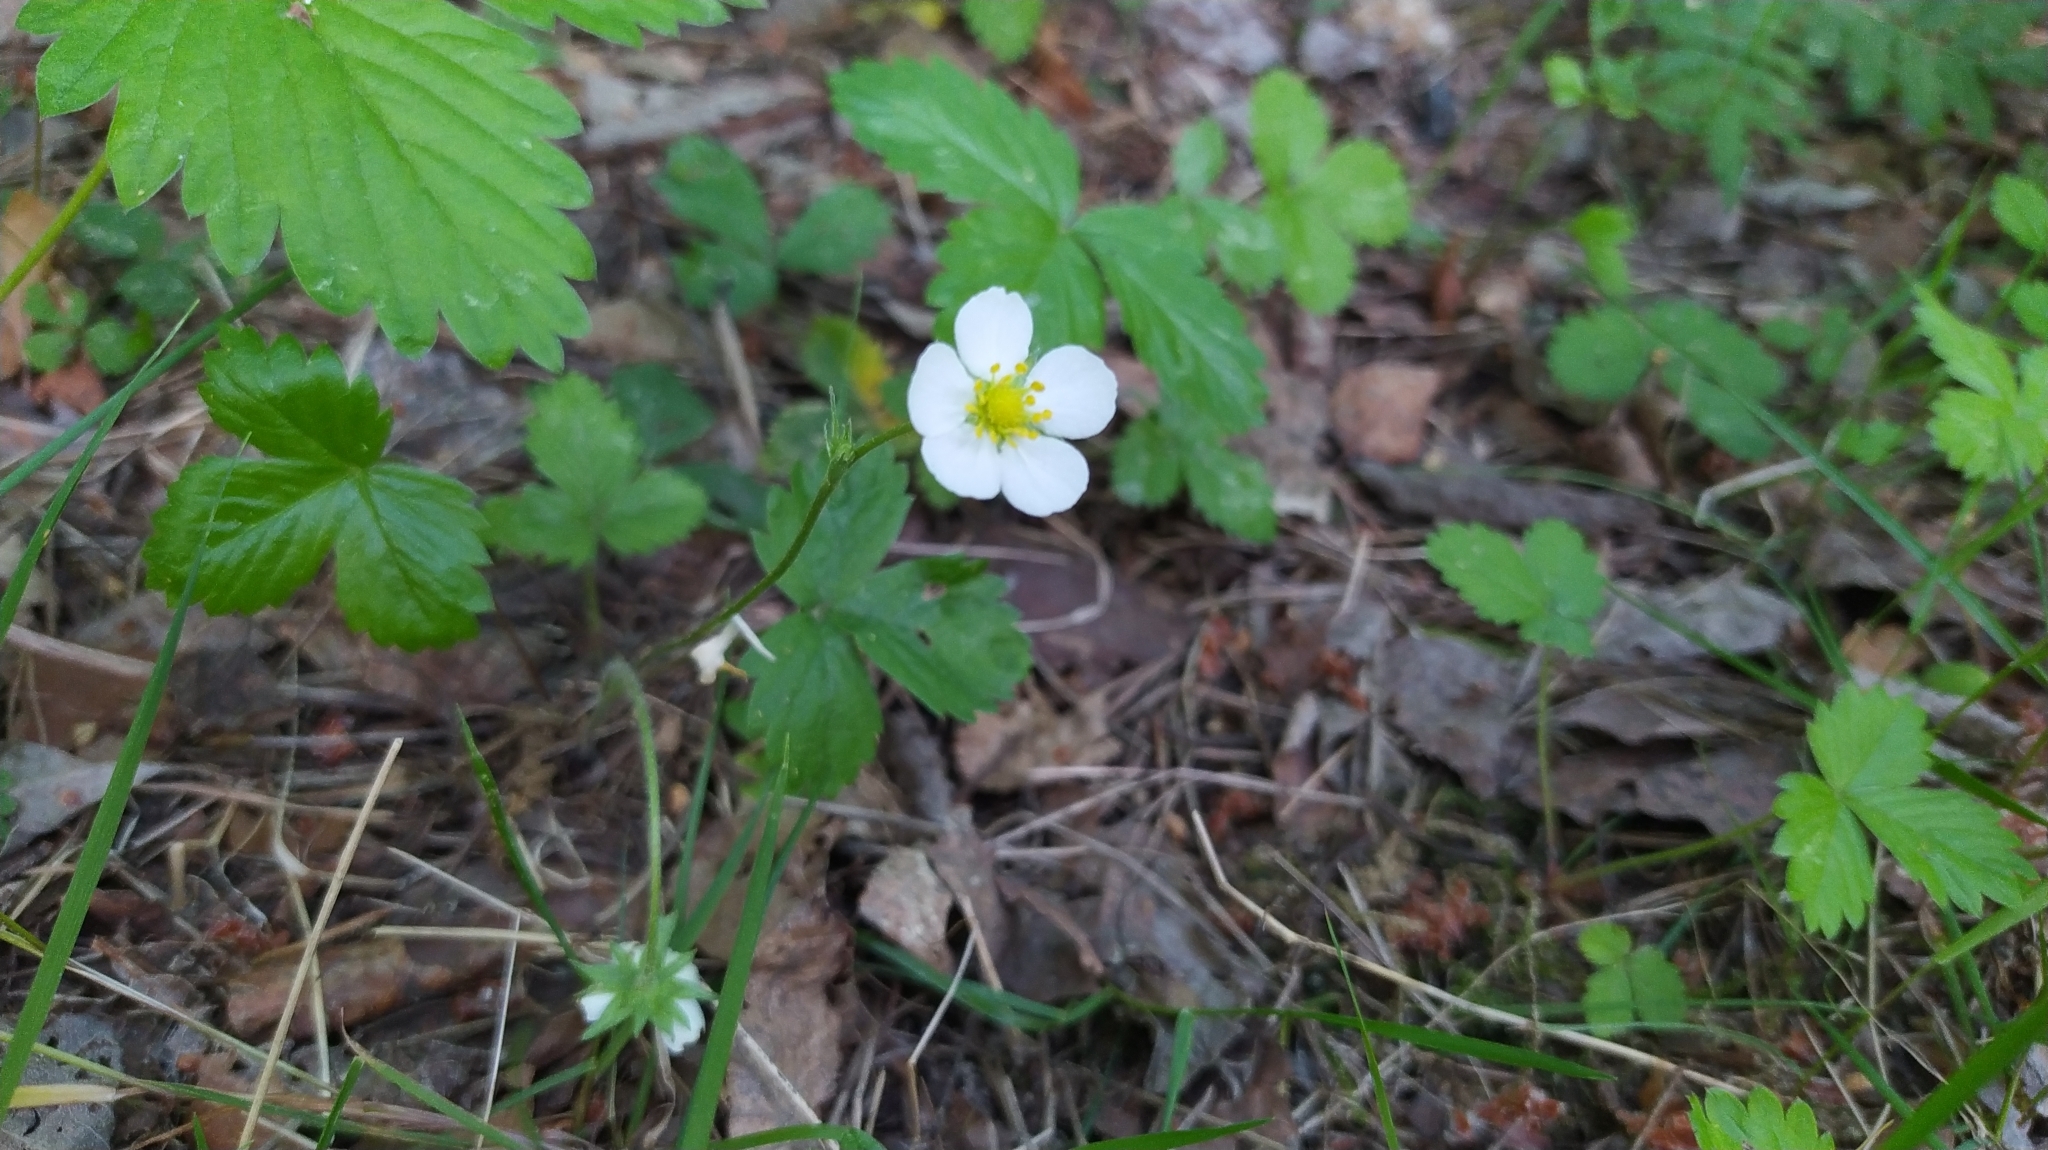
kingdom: Plantae
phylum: Tracheophyta
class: Magnoliopsida
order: Rosales
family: Rosaceae
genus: Fragaria
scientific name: Fragaria vesca
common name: Wild strawberry
